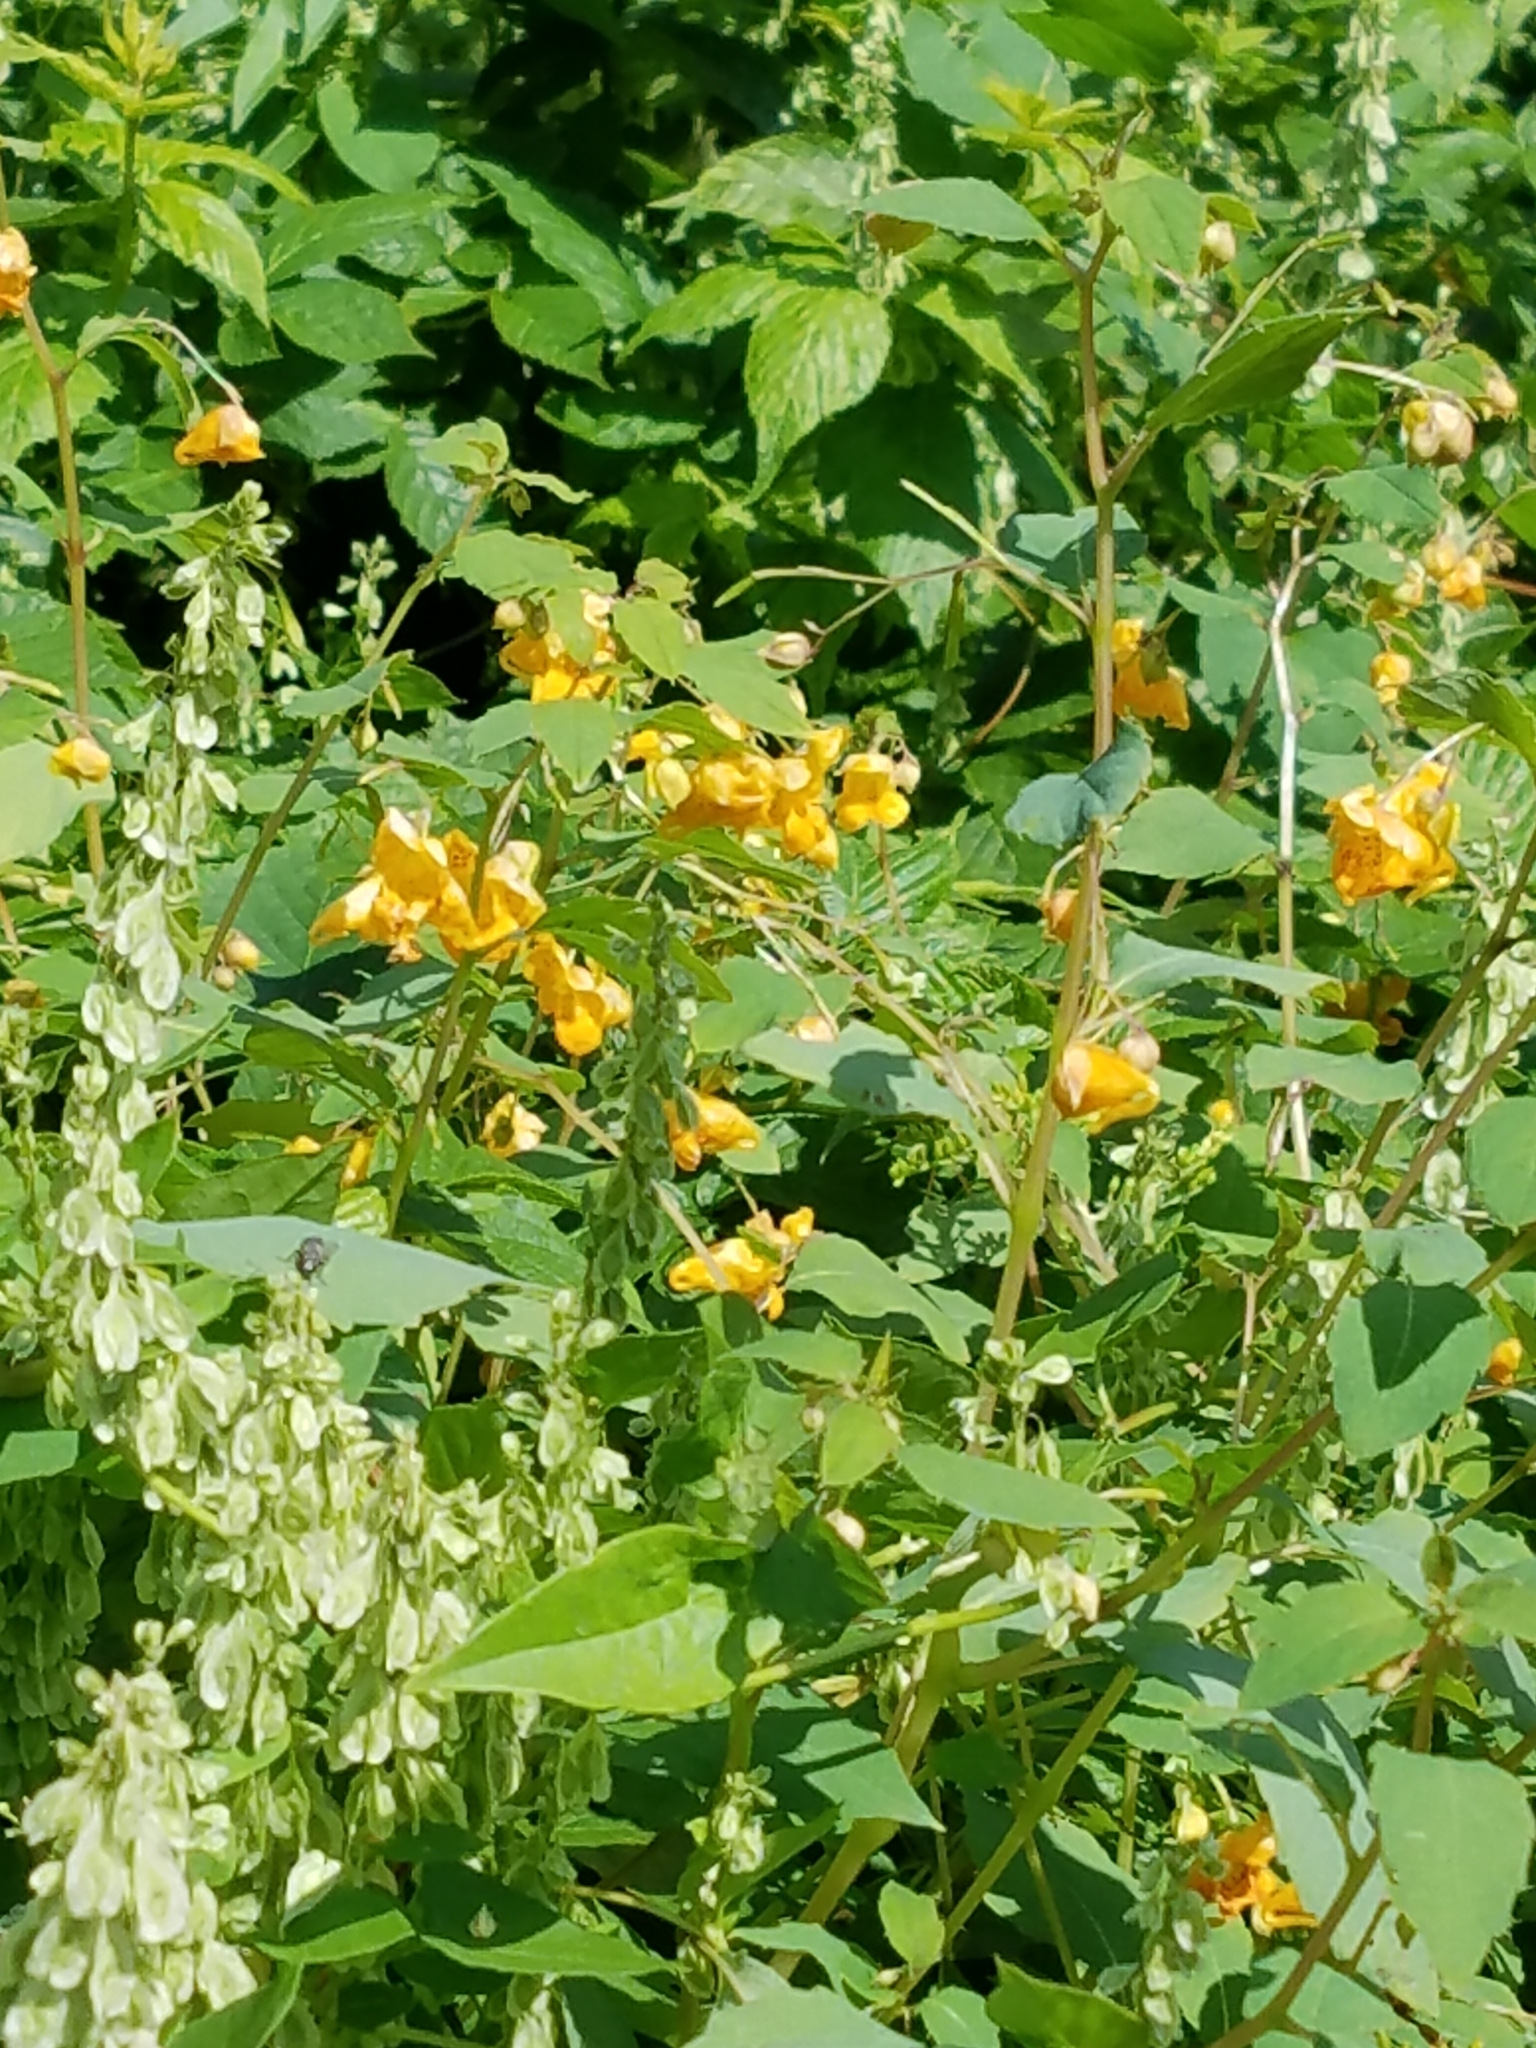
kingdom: Plantae
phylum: Tracheophyta
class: Magnoliopsida
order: Ericales
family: Balsaminaceae
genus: Impatiens
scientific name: Impatiens capensis
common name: Orange balsam
